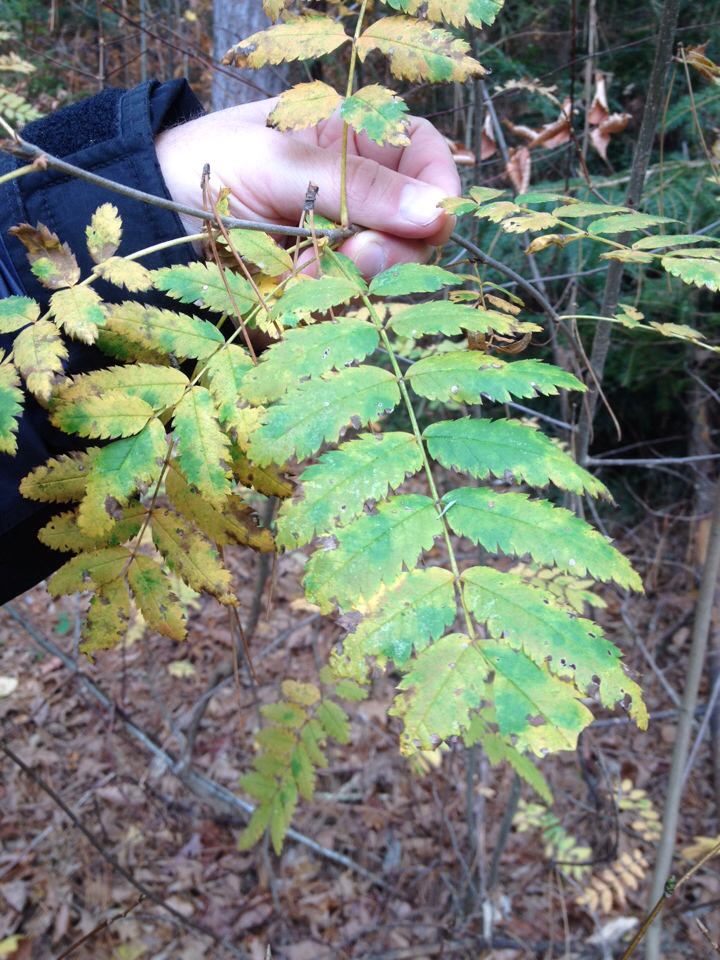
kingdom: Plantae
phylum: Tracheophyta
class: Magnoliopsida
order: Rosales
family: Rosaceae
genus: Sorbus
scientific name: Sorbus aucuparia
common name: Rowan
